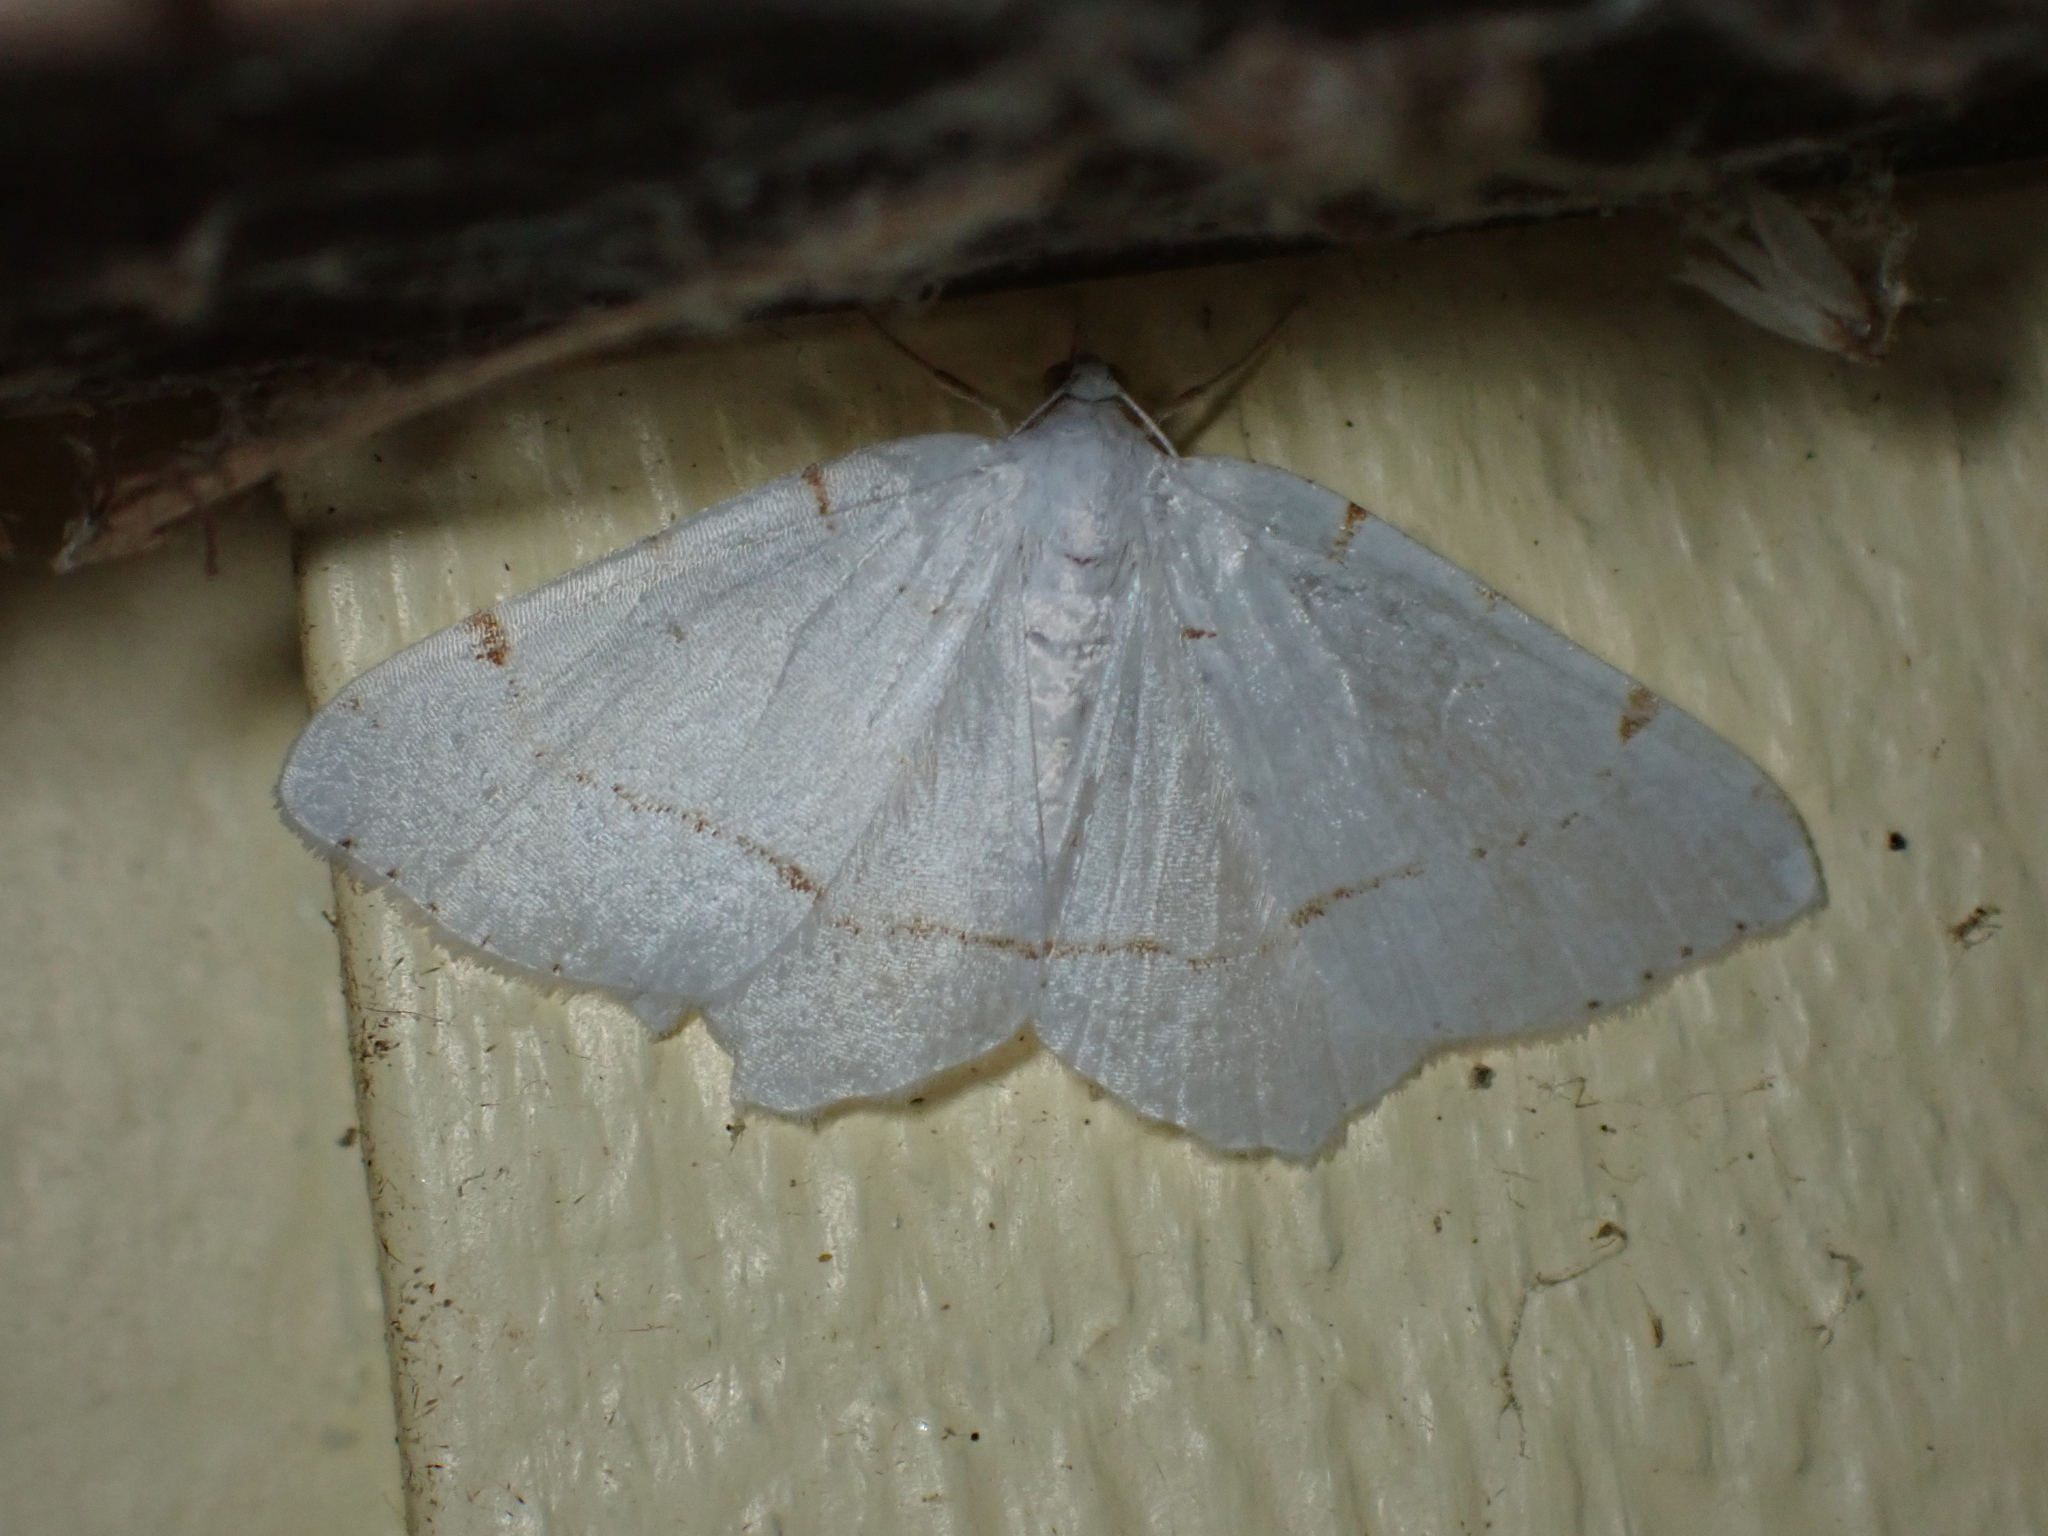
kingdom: Animalia
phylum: Arthropoda
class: Insecta
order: Lepidoptera
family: Geometridae
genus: Macaria
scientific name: Macaria pustularia
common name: Lesser maple spanworm moth
